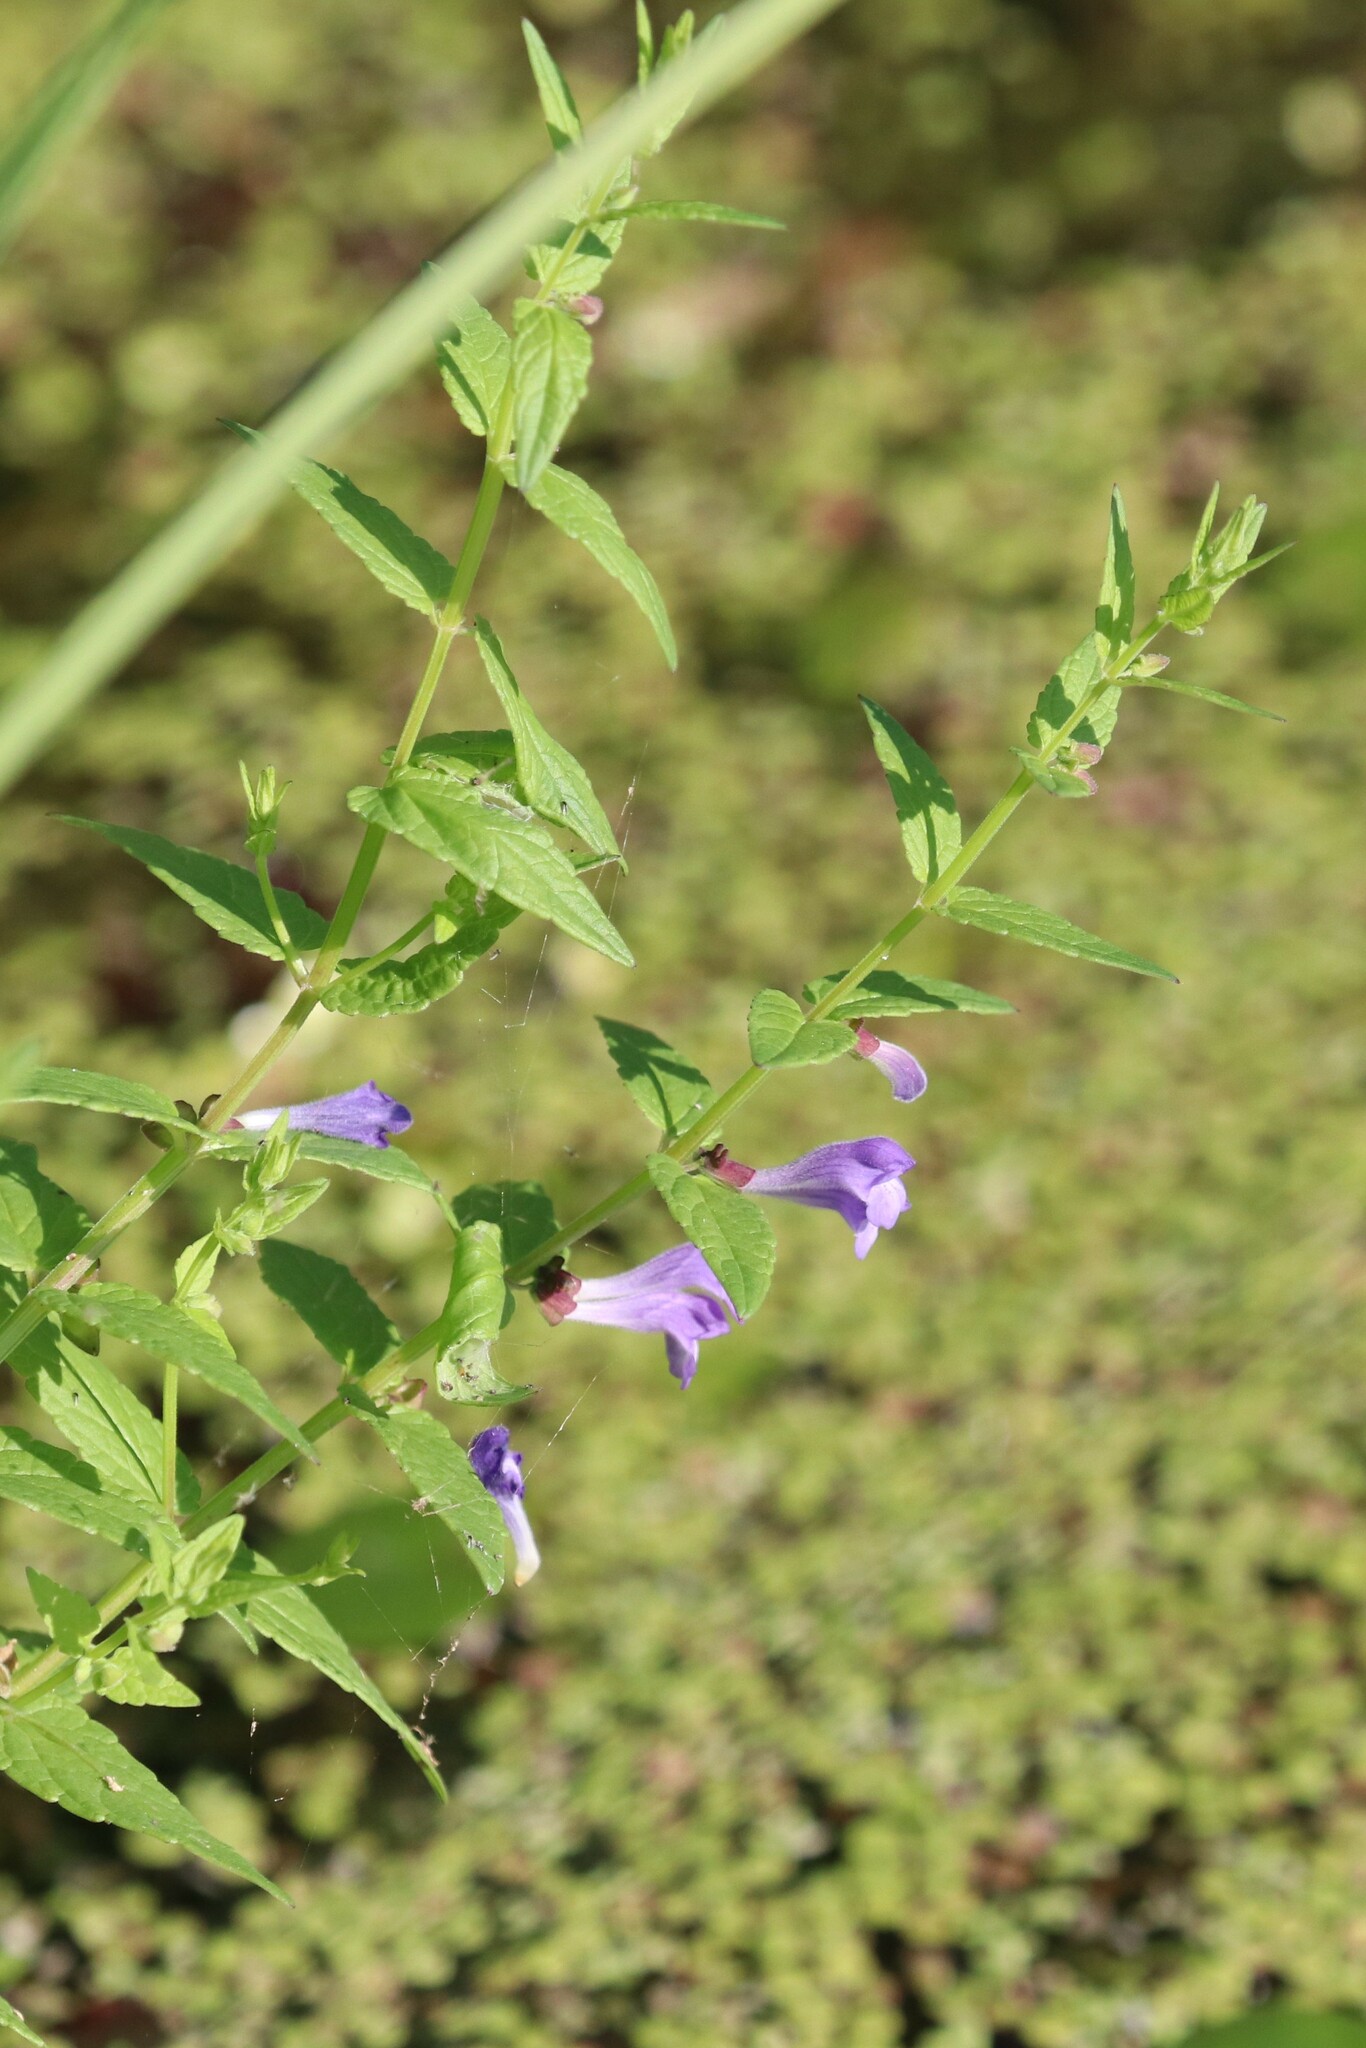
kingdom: Plantae
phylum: Tracheophyta
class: Magnoliopsida
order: Lamiales
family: Lamiaceae
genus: Scutellaria
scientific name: Scutellaria galericulata
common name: Skullcap
